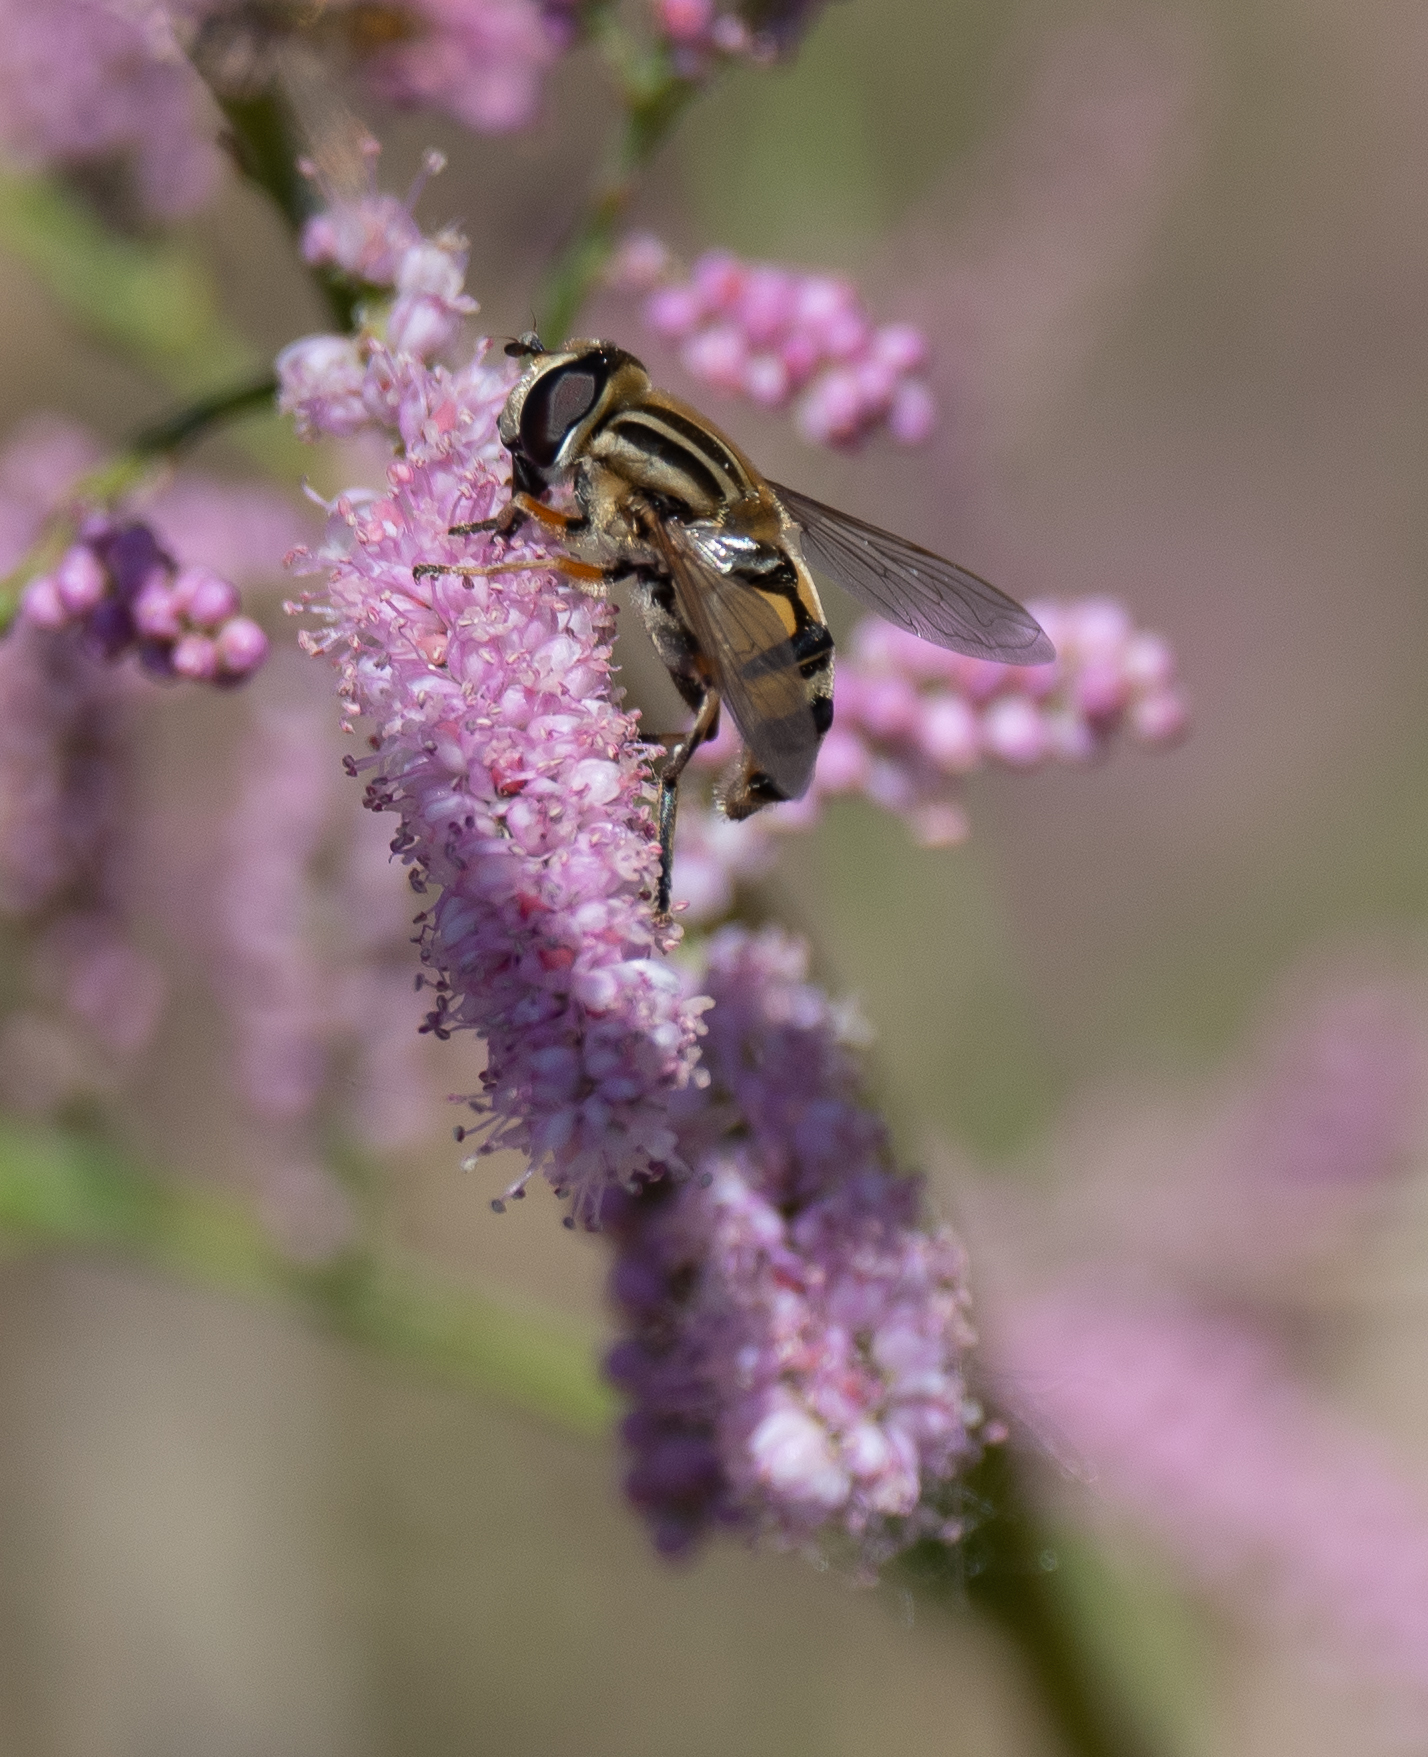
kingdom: Animalia
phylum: Arthropoda
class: Insecta
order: Diptera
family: Syrphidae
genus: Helophilus
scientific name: Helophilus latifrons
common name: Broad-headed marsh fly
